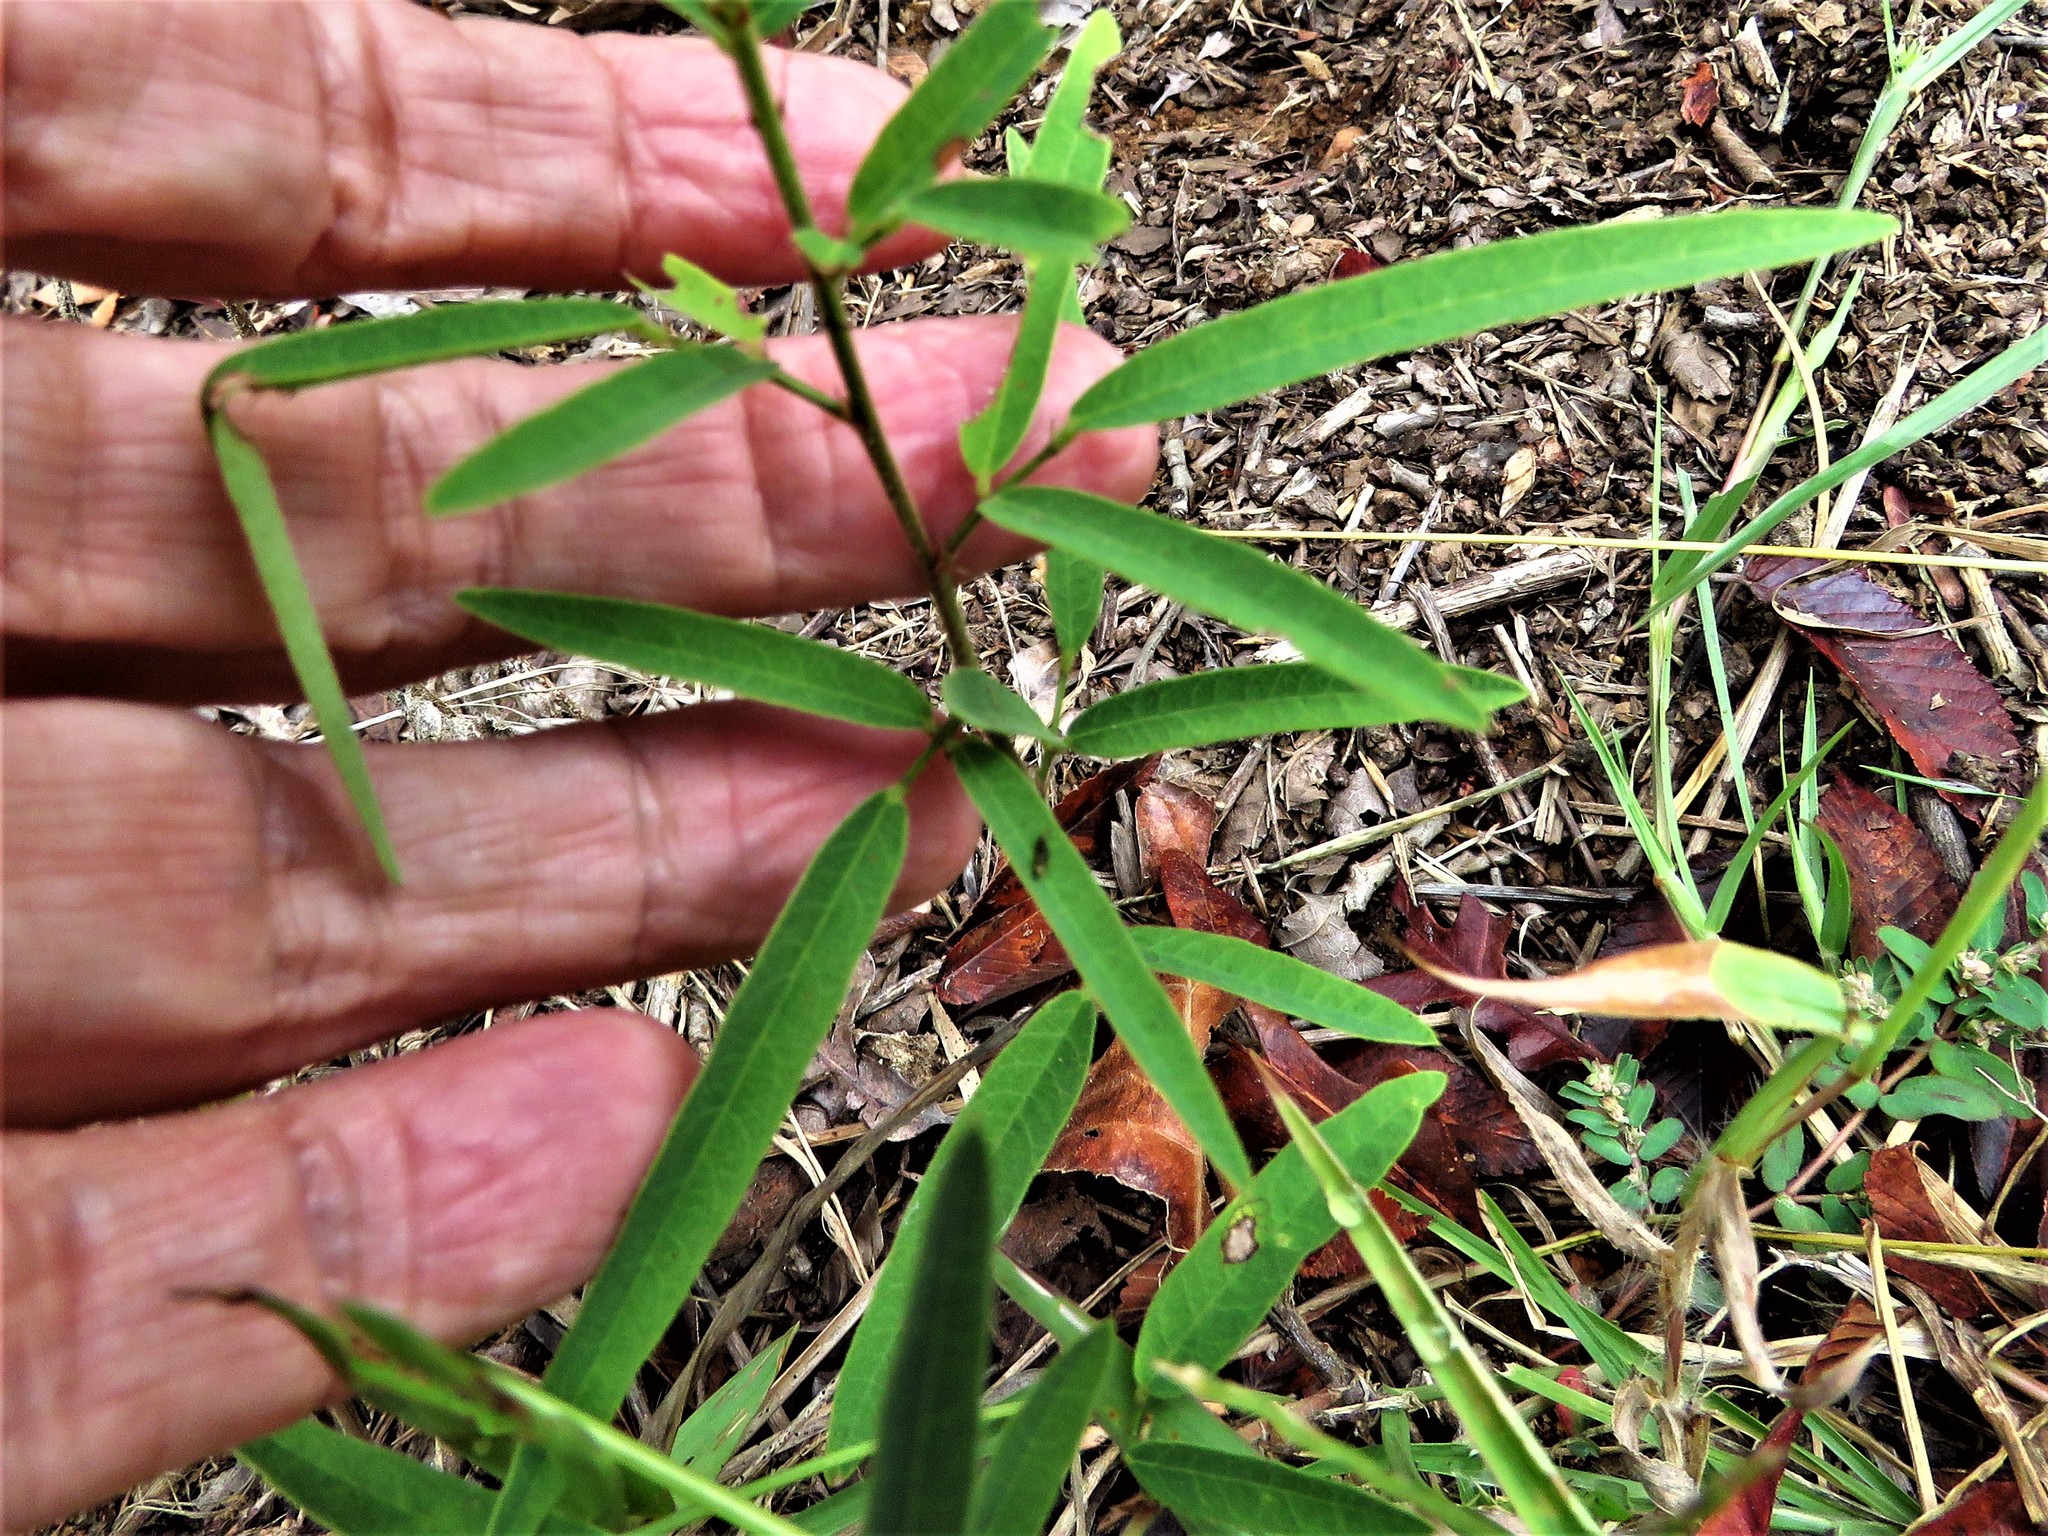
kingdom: Plantae
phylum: Tracheophyta
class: Magnoliopsida
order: Fabales
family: Fabaceae
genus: Desmodium
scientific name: Desmodium sessilifolium
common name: Sessile tick-clover
